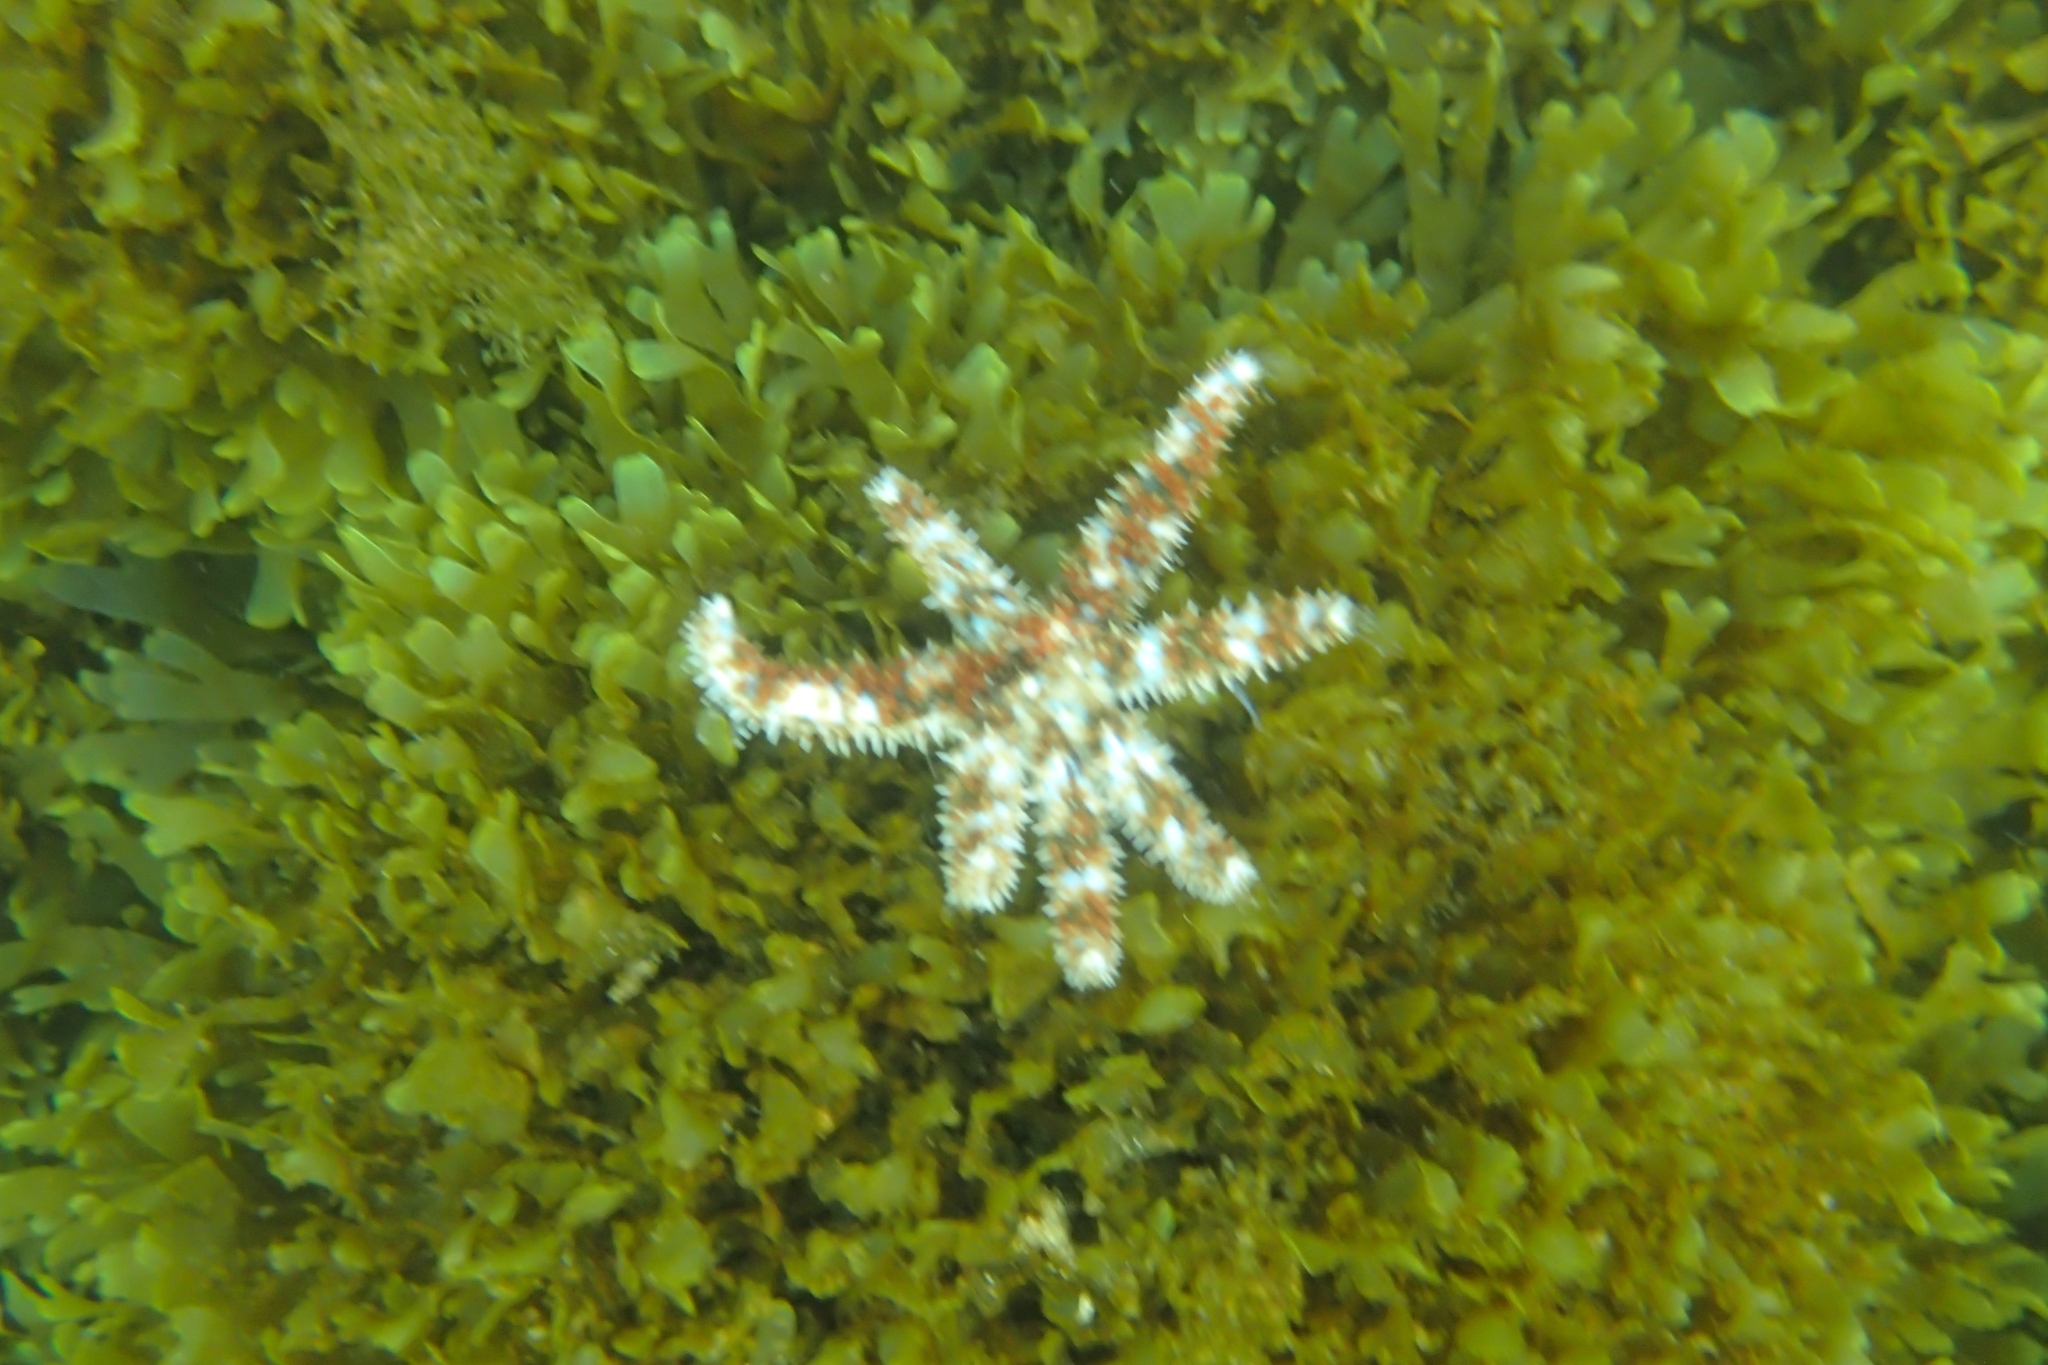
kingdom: Animalia
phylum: Echinodermata
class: Asteroidea
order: Forcipulatida
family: Asteriidae
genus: Coscinasterias
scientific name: Coscinasterias tenuispina
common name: Blue spiny starfish
